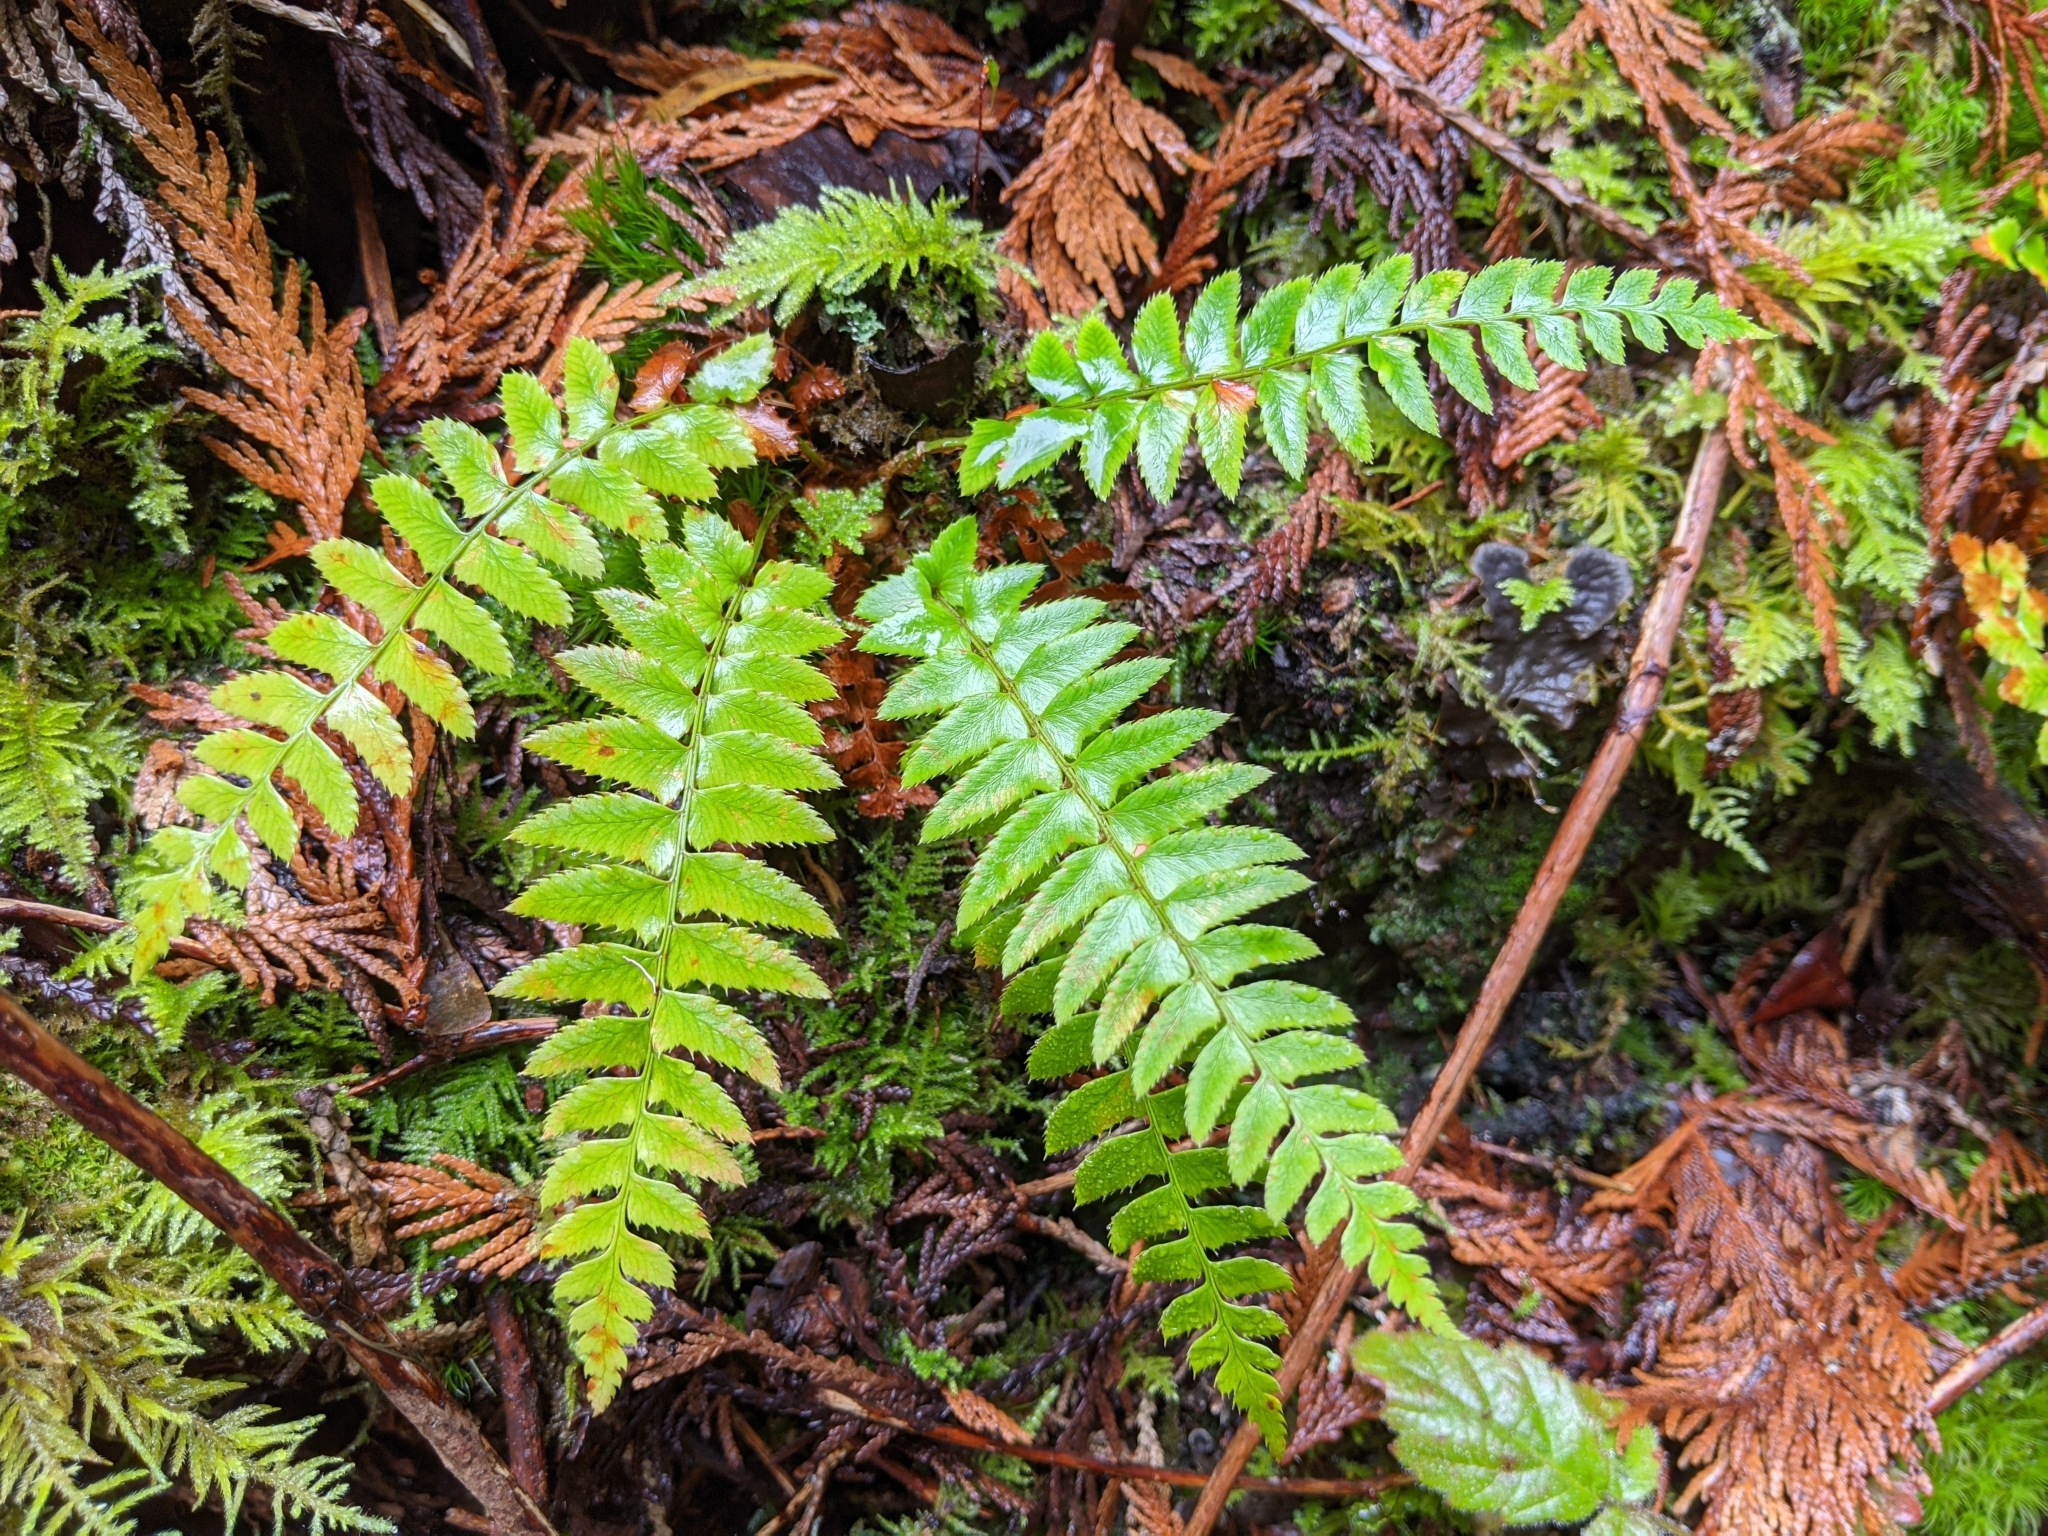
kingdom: Plantae
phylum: Tracheophyta
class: Polypodiopsida
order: Polypodiales
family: Dryopteridaceae
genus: Polystichum
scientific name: Polystichum munitum
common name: Western sword-fern
